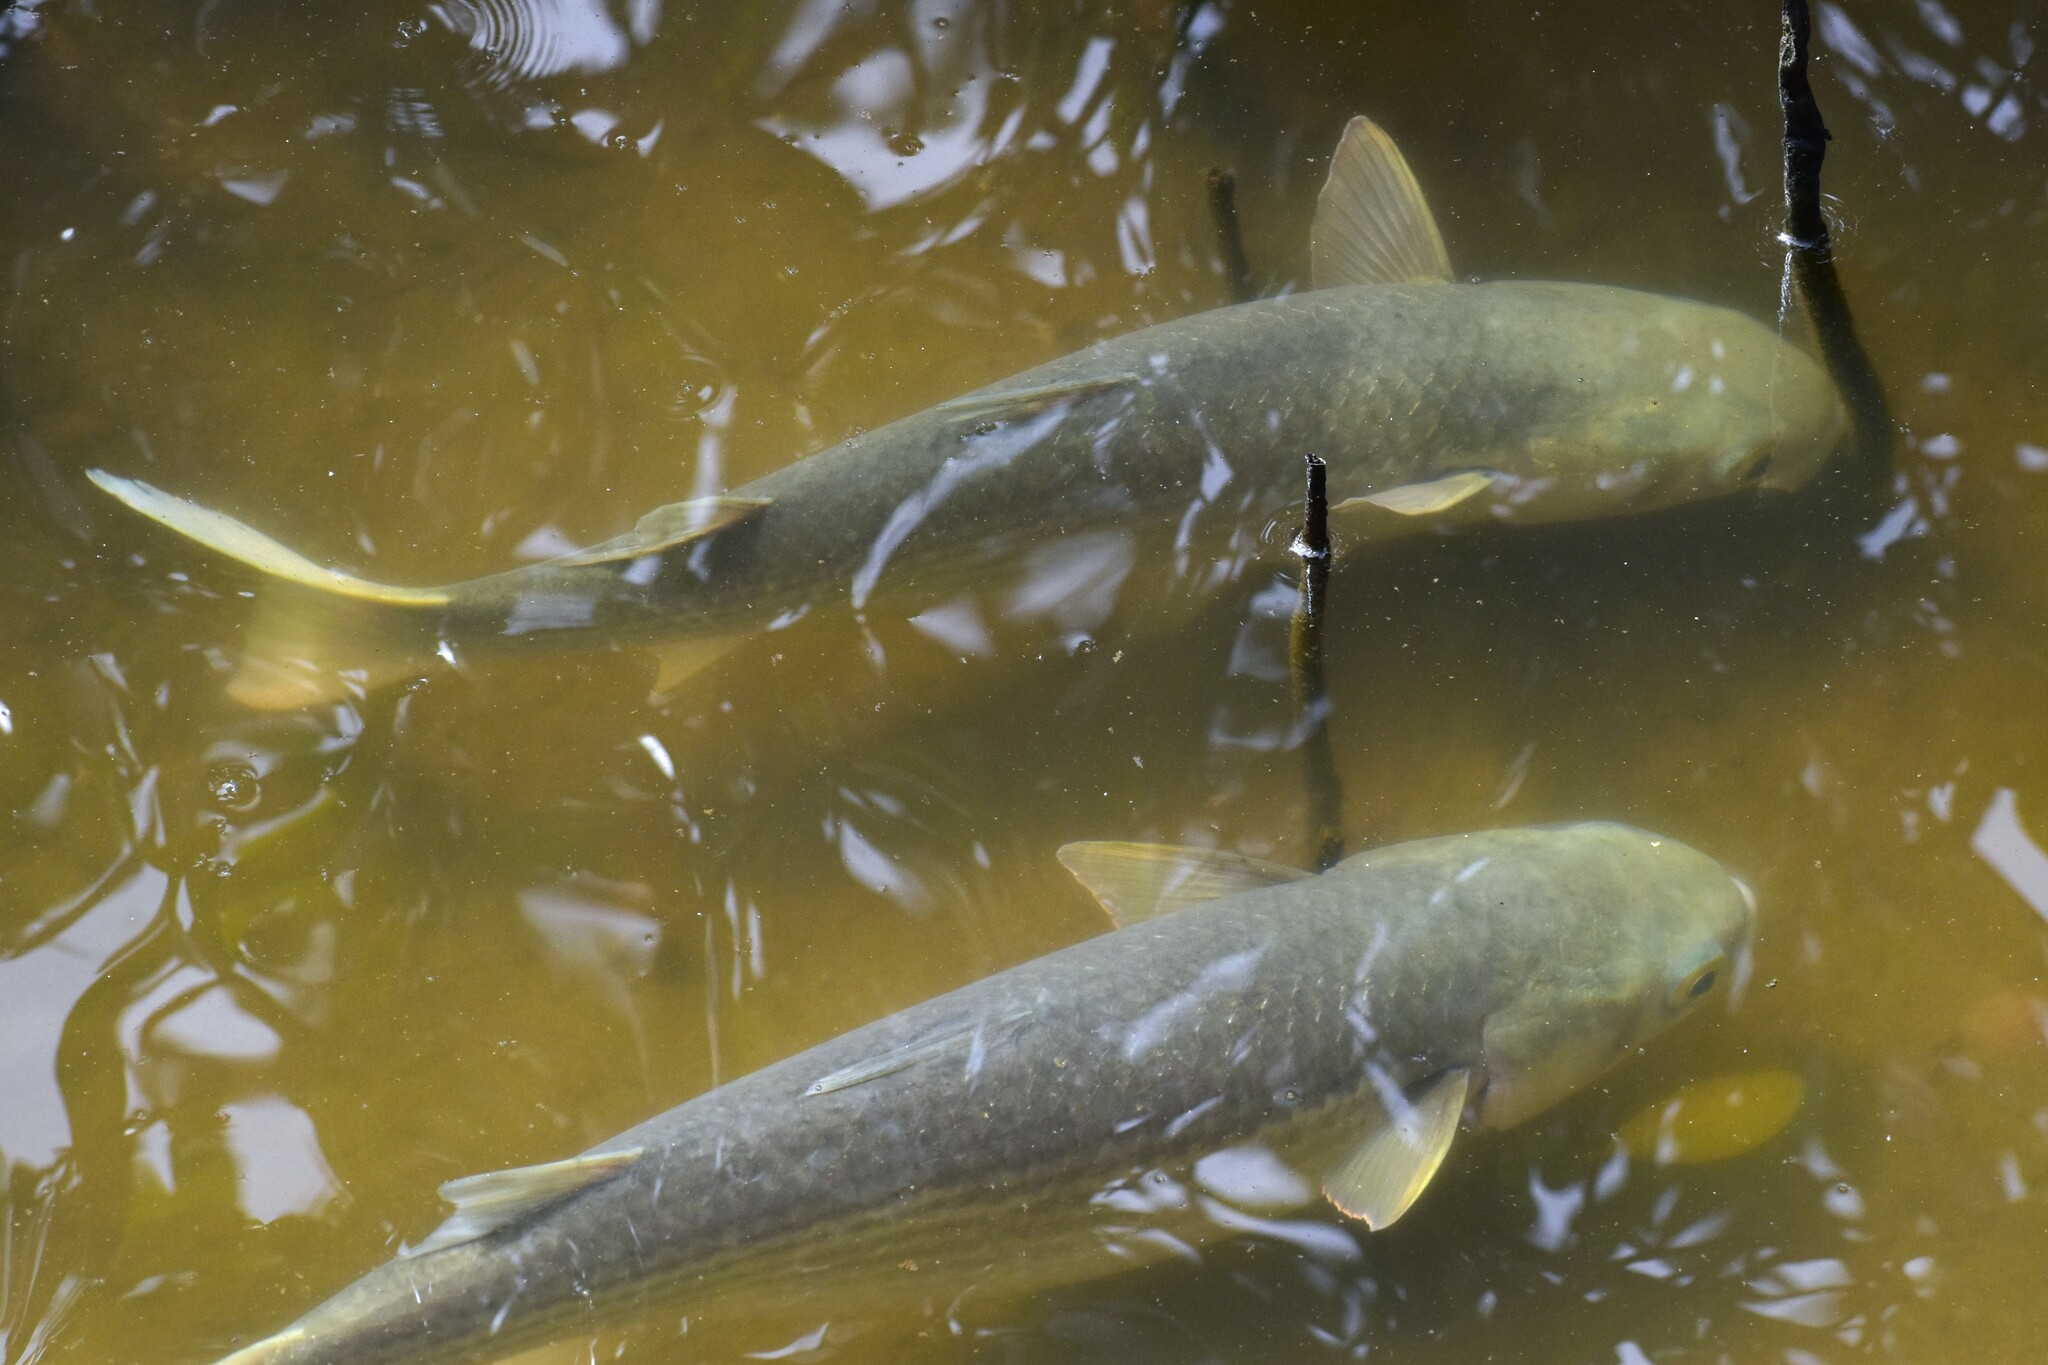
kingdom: Animalia
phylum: Chordata
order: Mugiliformes
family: Mugilidae
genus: Mugil
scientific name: Mugil cephalus
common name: Grey mullet
